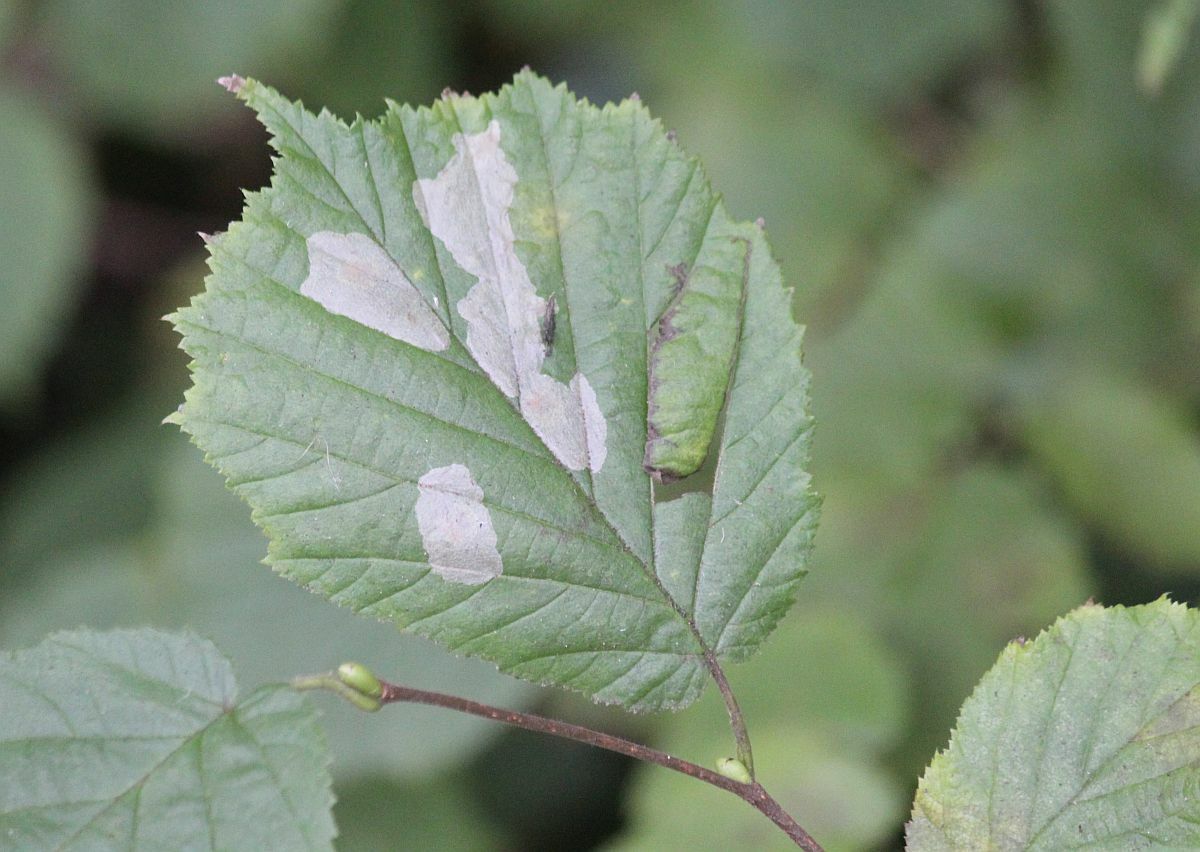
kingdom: Animalia
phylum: Arthropoda
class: Insecta
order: Lepidoptera
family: Gracillariidae
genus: Phyllonorycter
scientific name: Phyllonorycter coryli
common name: Nut-leaf blister moth
